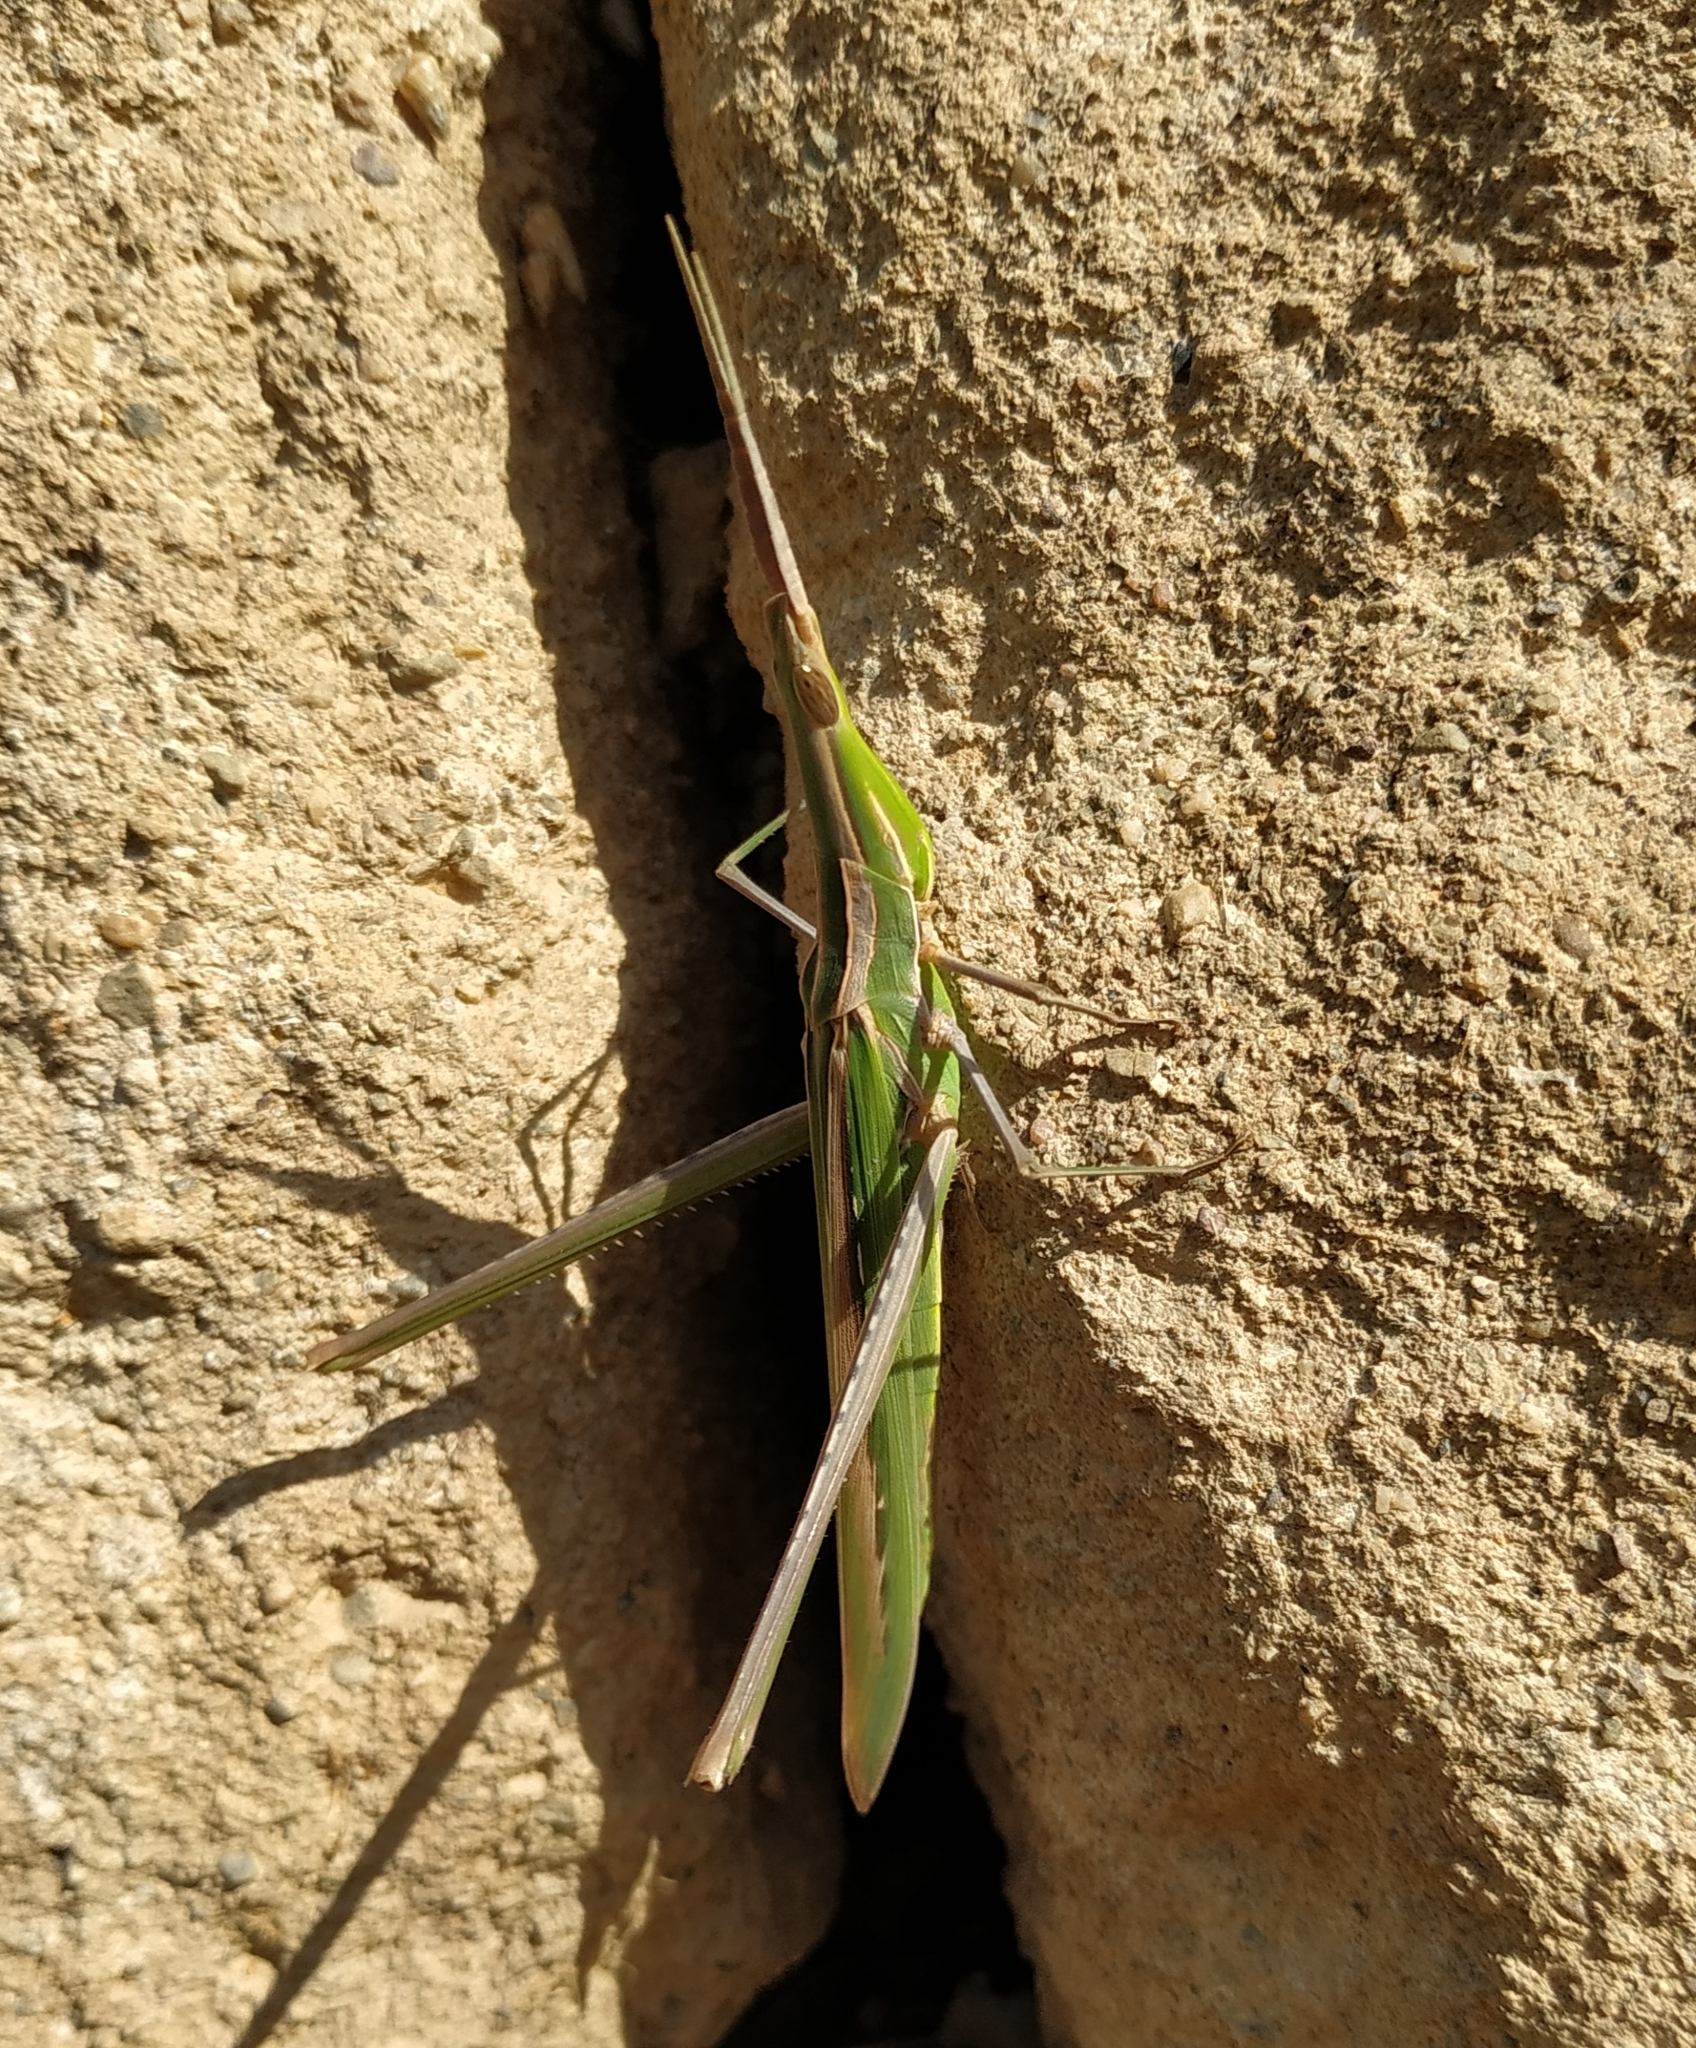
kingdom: Animalia
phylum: Arthropoda
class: Insecta
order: Orthoptera
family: Acrididae
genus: Acrida
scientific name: Acrida ungarica
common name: Common cone-headed grasshopper
